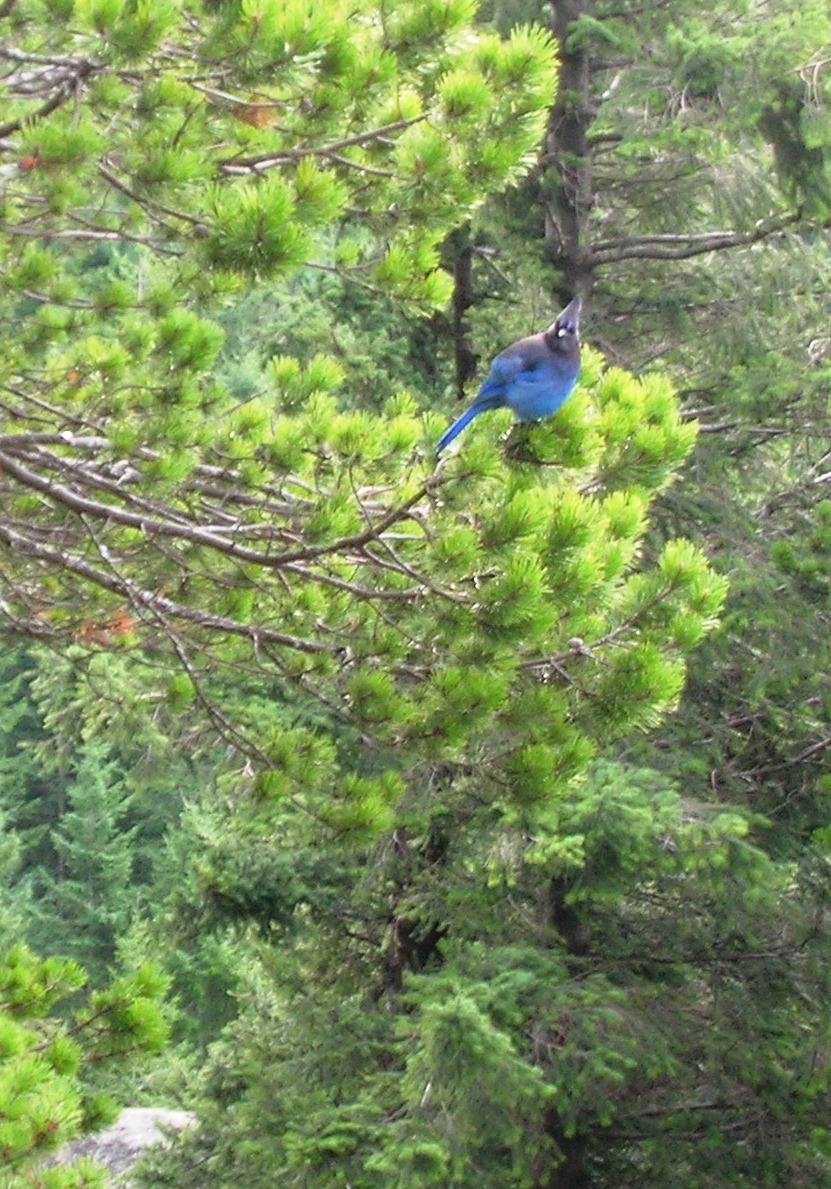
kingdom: Animalia
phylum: Chordata
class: Aves
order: Passeriformes
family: Corvidae
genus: Cyanocitta
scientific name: Cyanocitta stelleri
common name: Steller's jay
